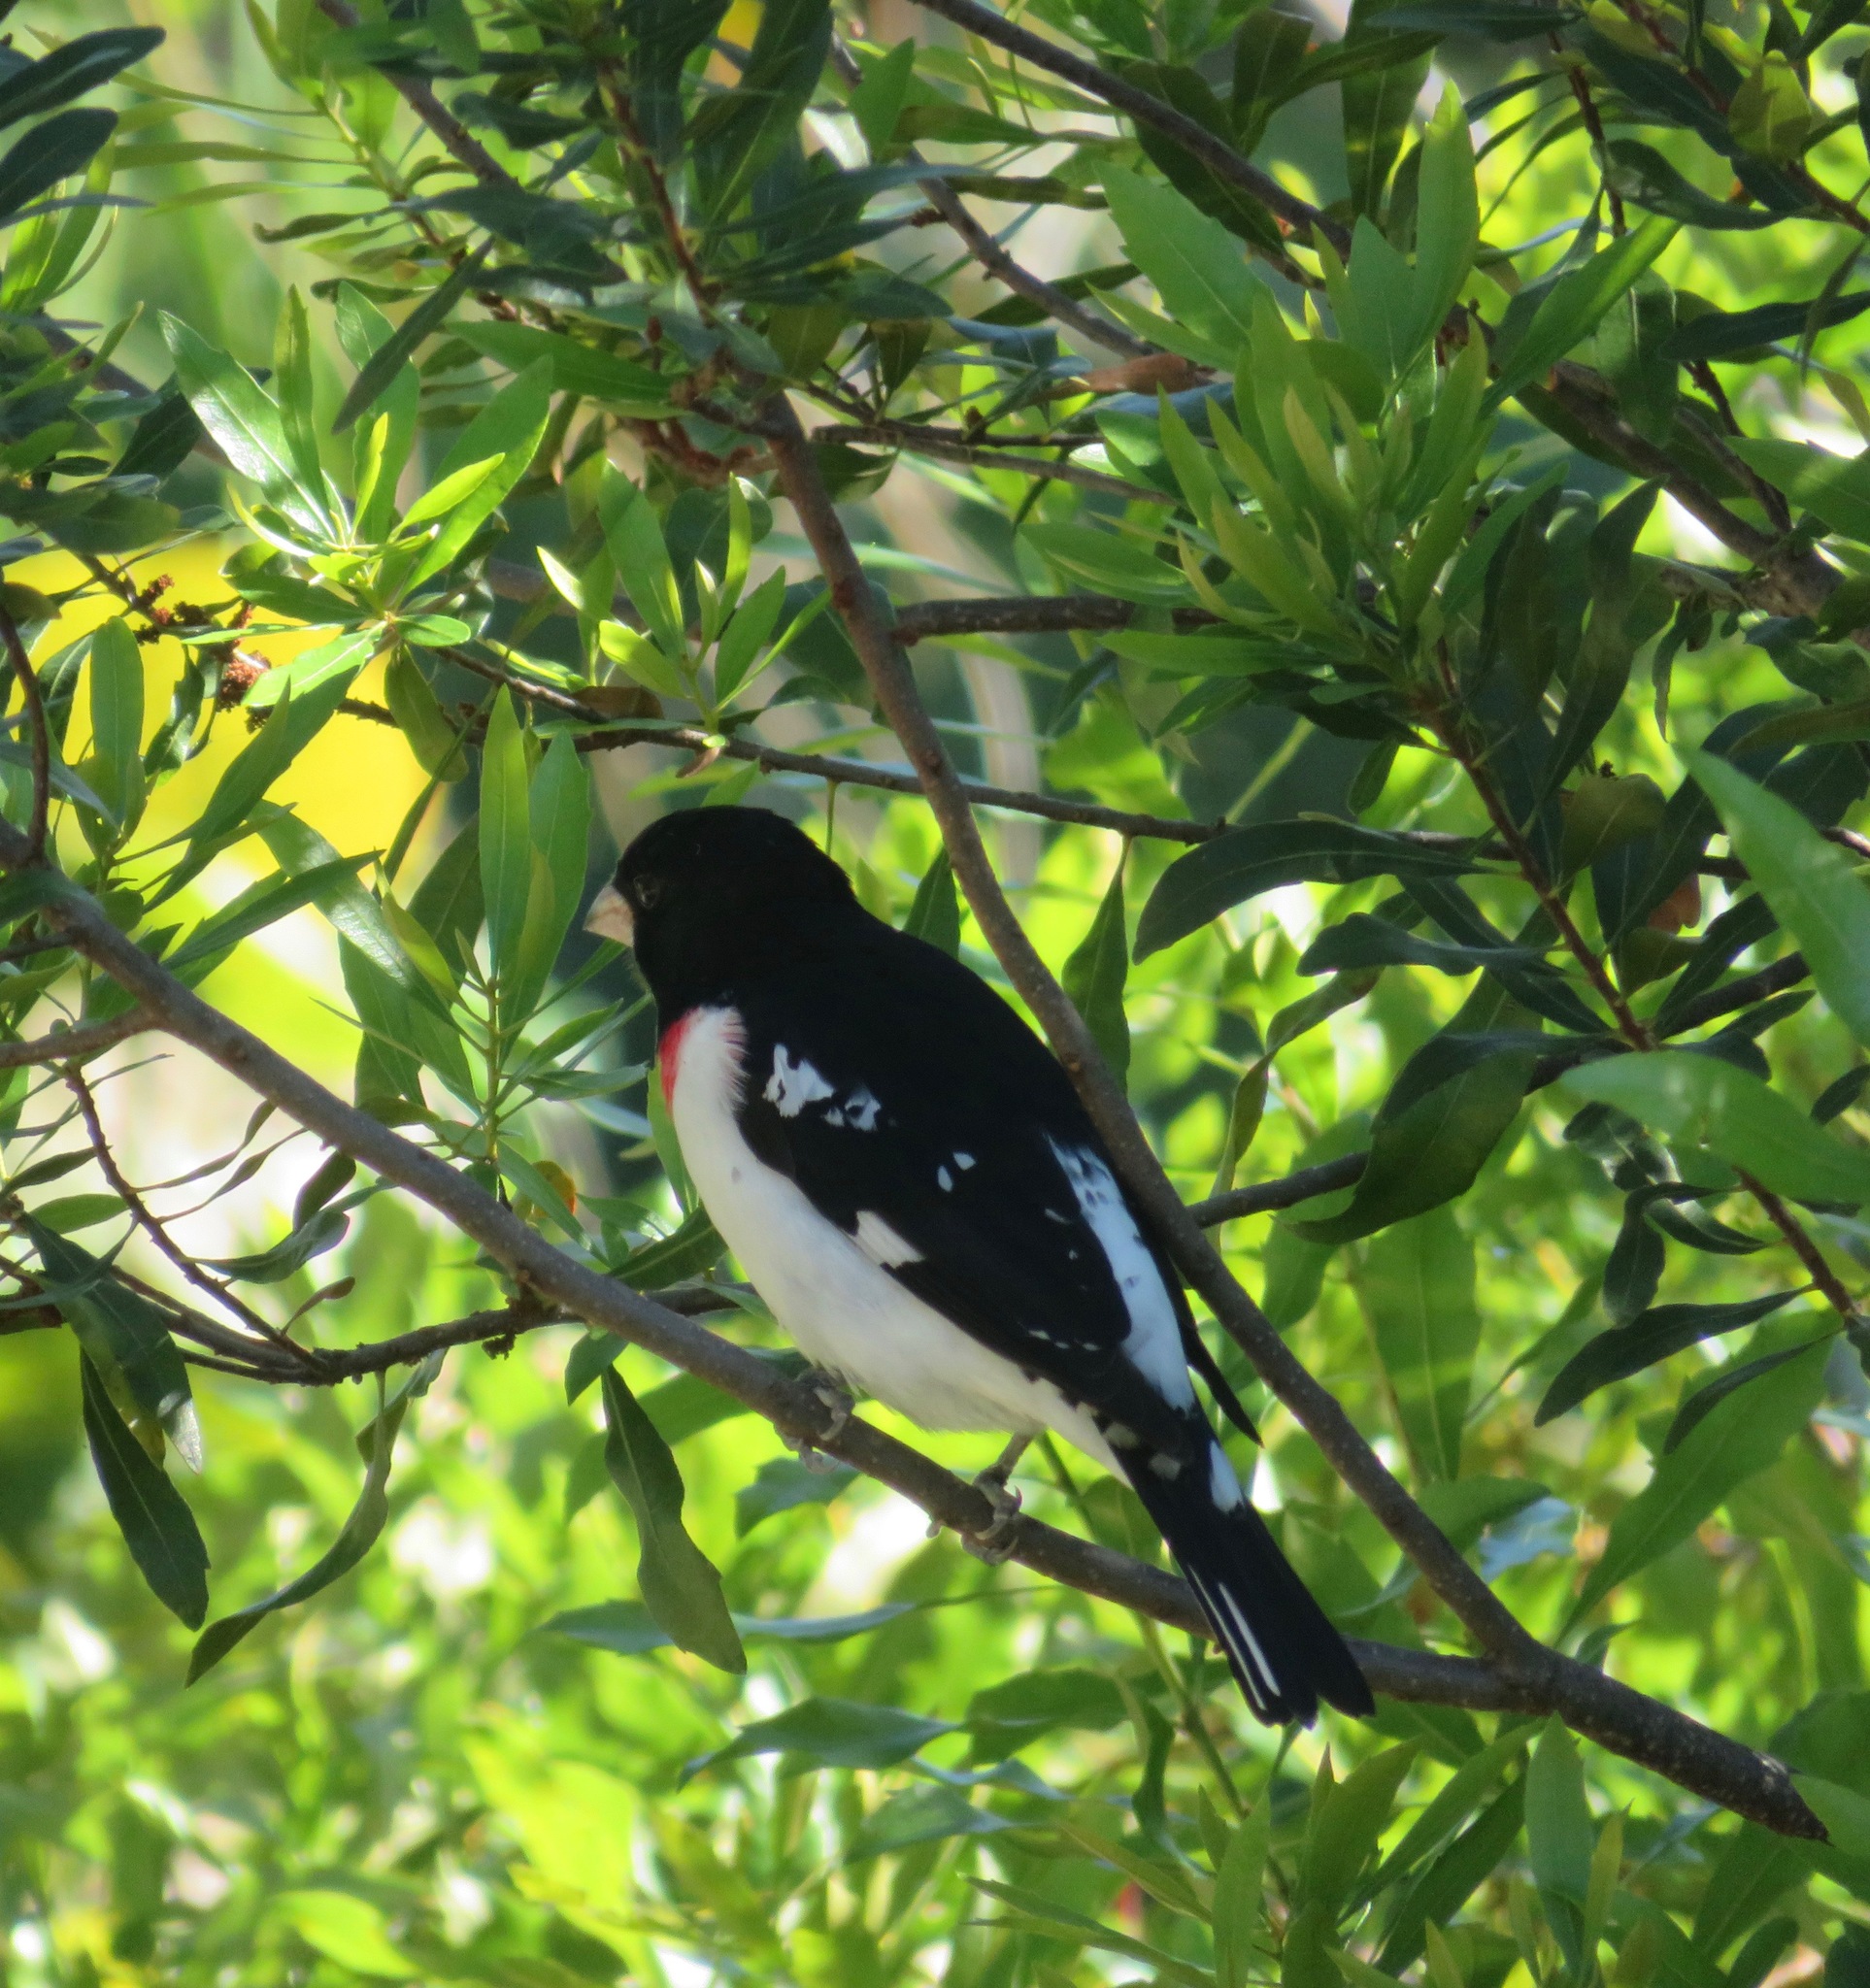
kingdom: Animalia
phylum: Chordata
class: Aves
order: Passeriformes
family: Cardinalidae
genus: Pheucticus
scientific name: Pheucticus ludovicianus
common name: Rose-breasted grosbeak
